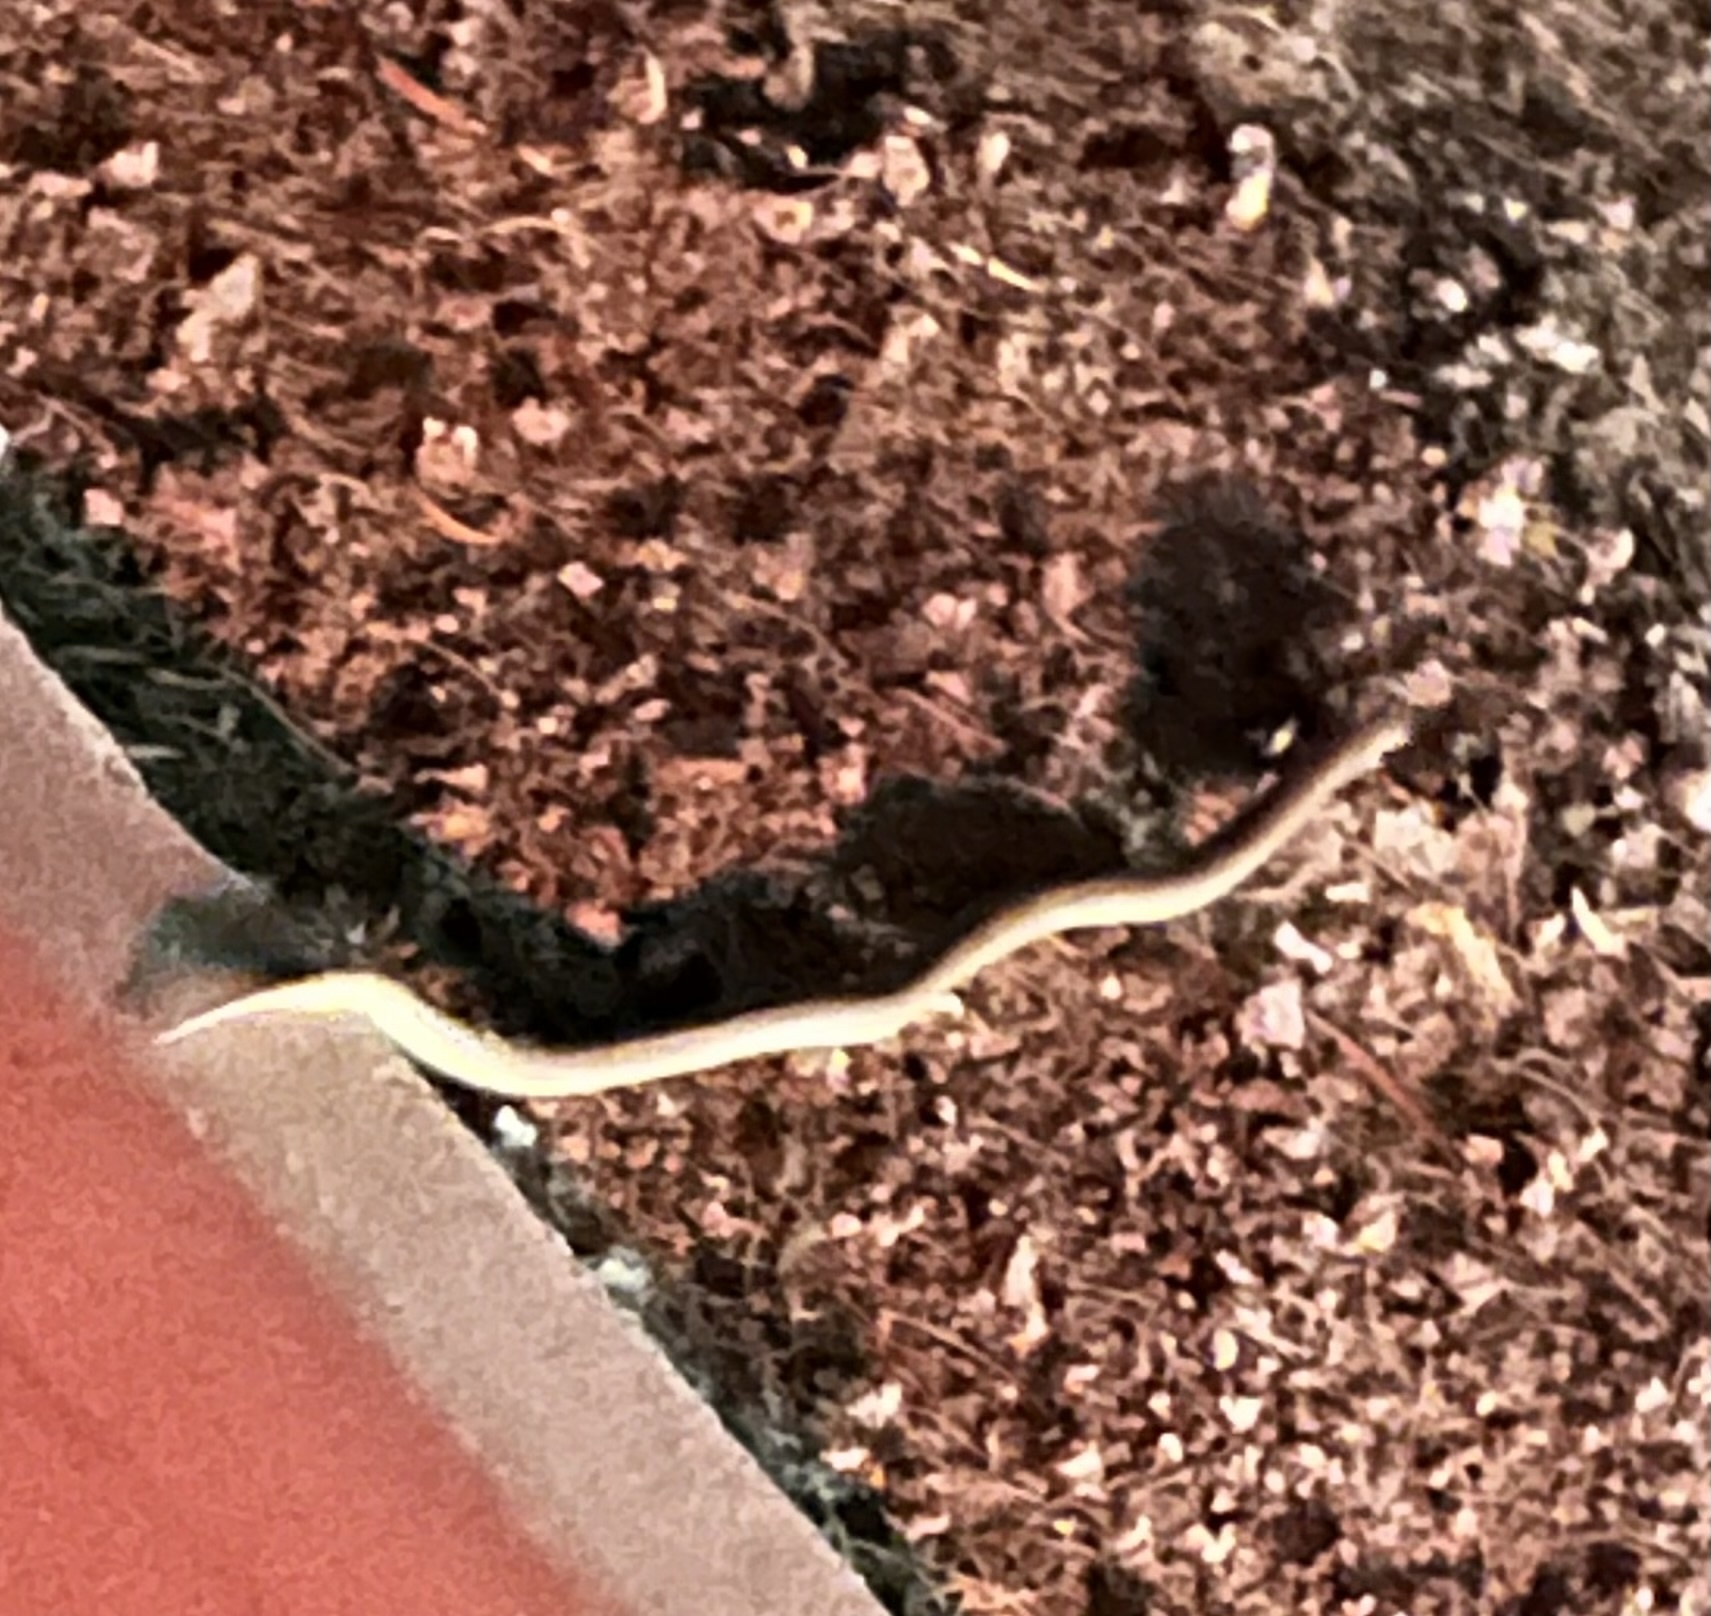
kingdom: Animalia
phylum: Chordata
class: Squamata
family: Colubridae
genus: Rhinocheilus
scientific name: Rhinocheilus lecontei
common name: Longnose snake
